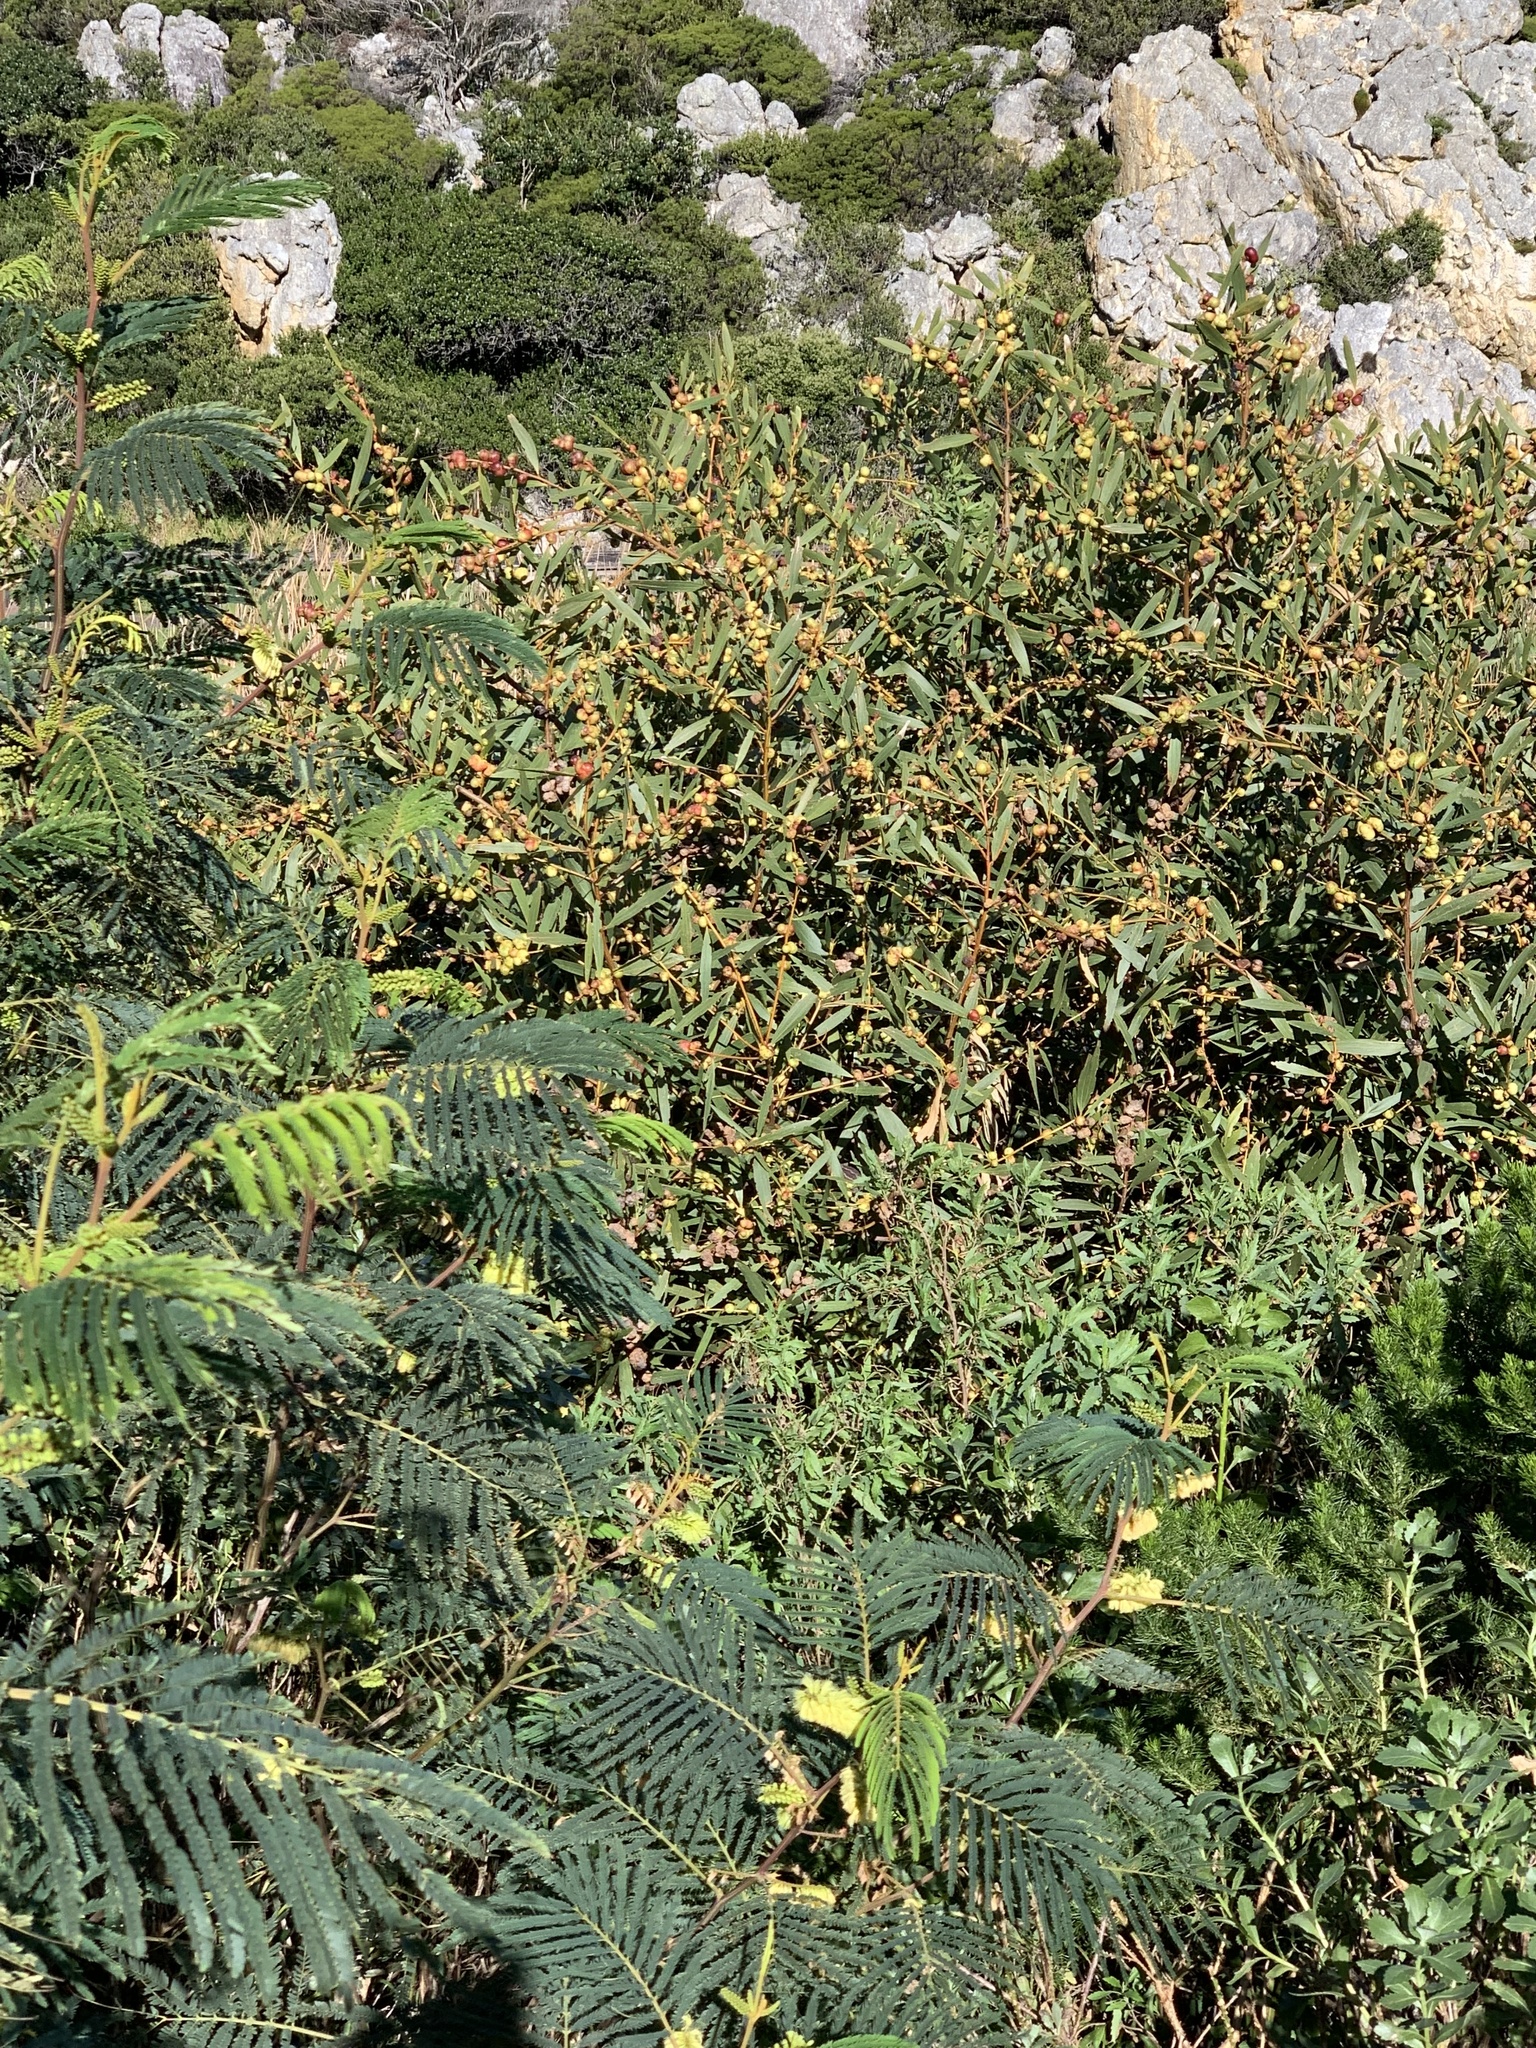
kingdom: Plantae
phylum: Tracheophyta
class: Magnoliopsida
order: Fabales
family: Fabaceae
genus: Acacia
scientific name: Acacia longifolia
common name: Sydney golden wattle
